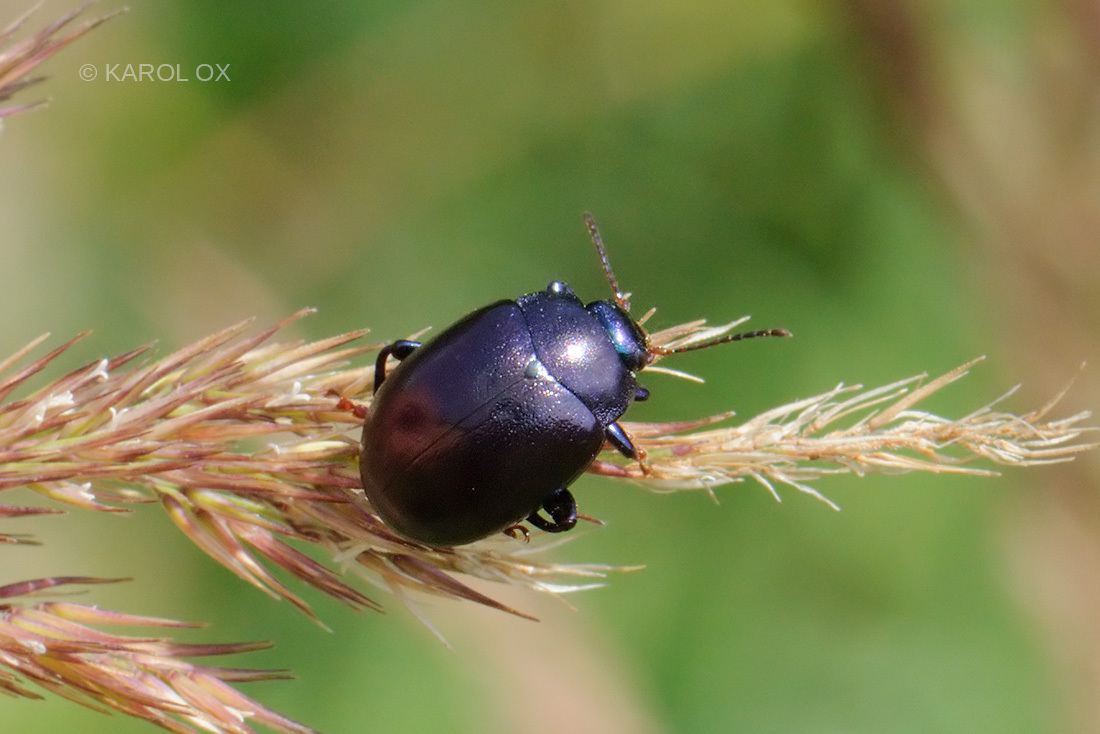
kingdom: Animalia
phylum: Arthropoda
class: Insecta
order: Coleoptera
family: Chrysomelidae
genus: Chrysolina
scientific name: Chrysolina sturmi
